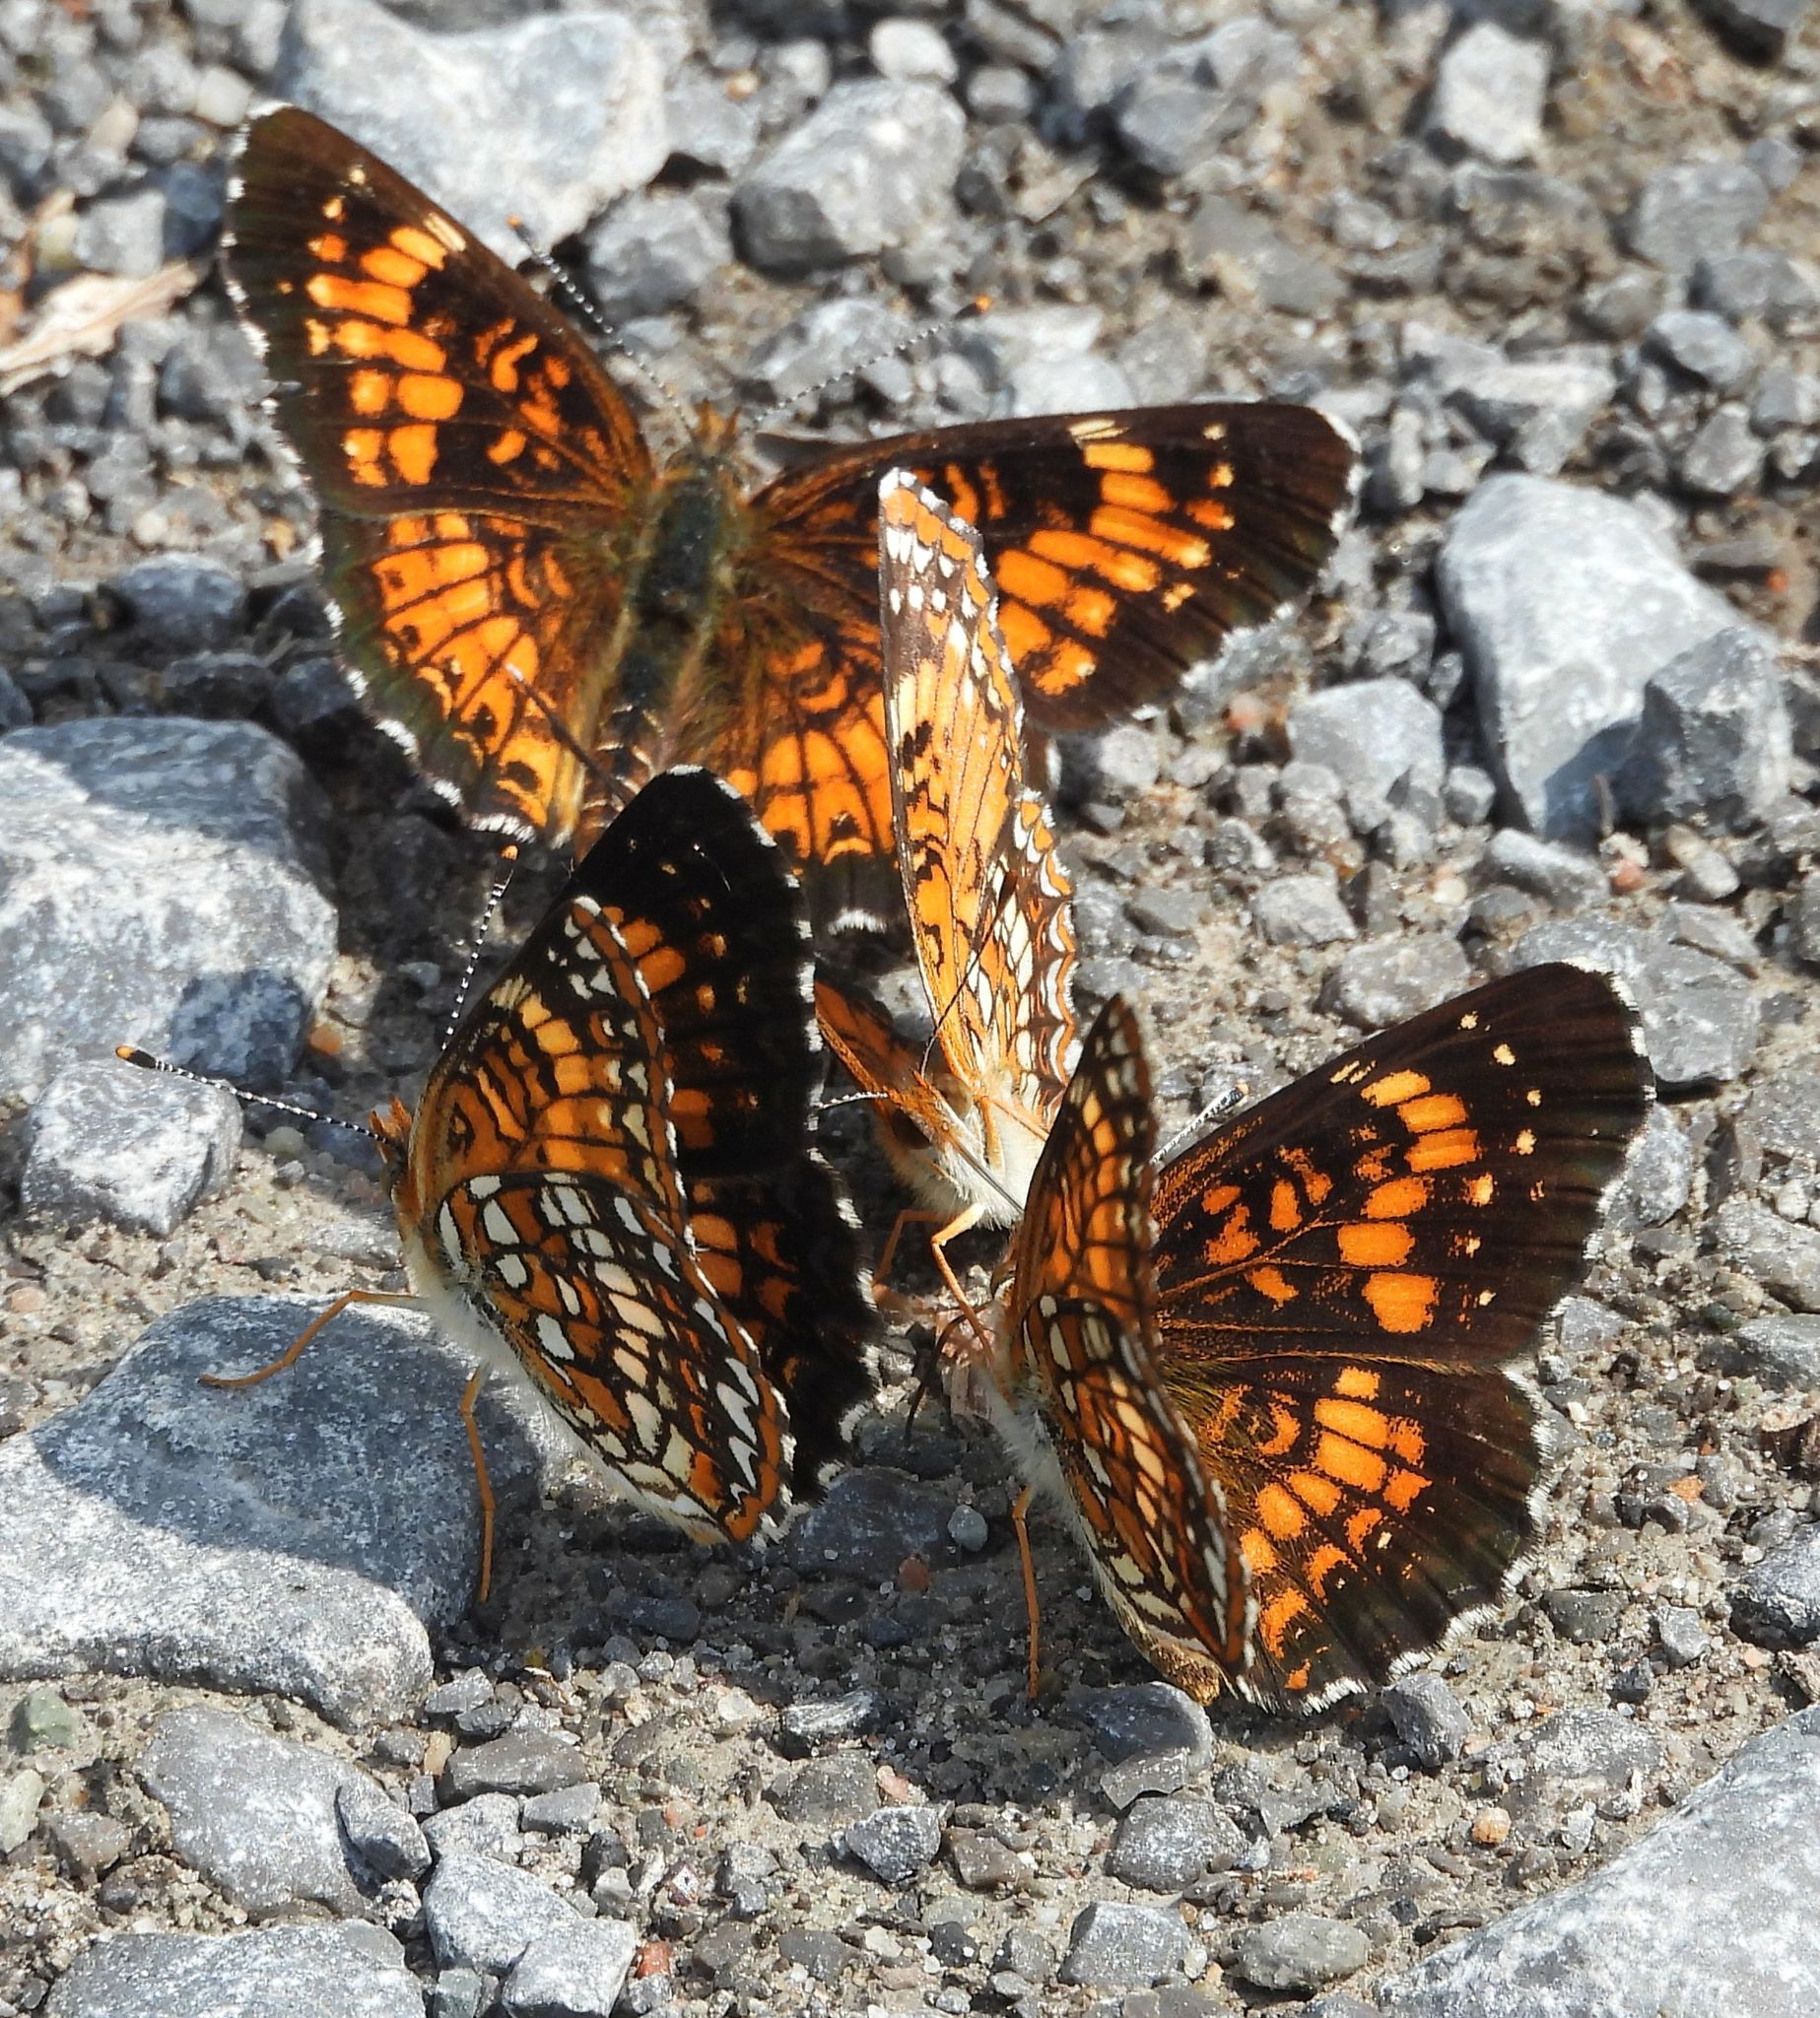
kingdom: Animalia
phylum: Arthropoda
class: Insecta
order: Lepidoptera
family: Nymphalidae
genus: Chlosyne
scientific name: Chlosyne harrisii
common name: Harris's checkerspot
